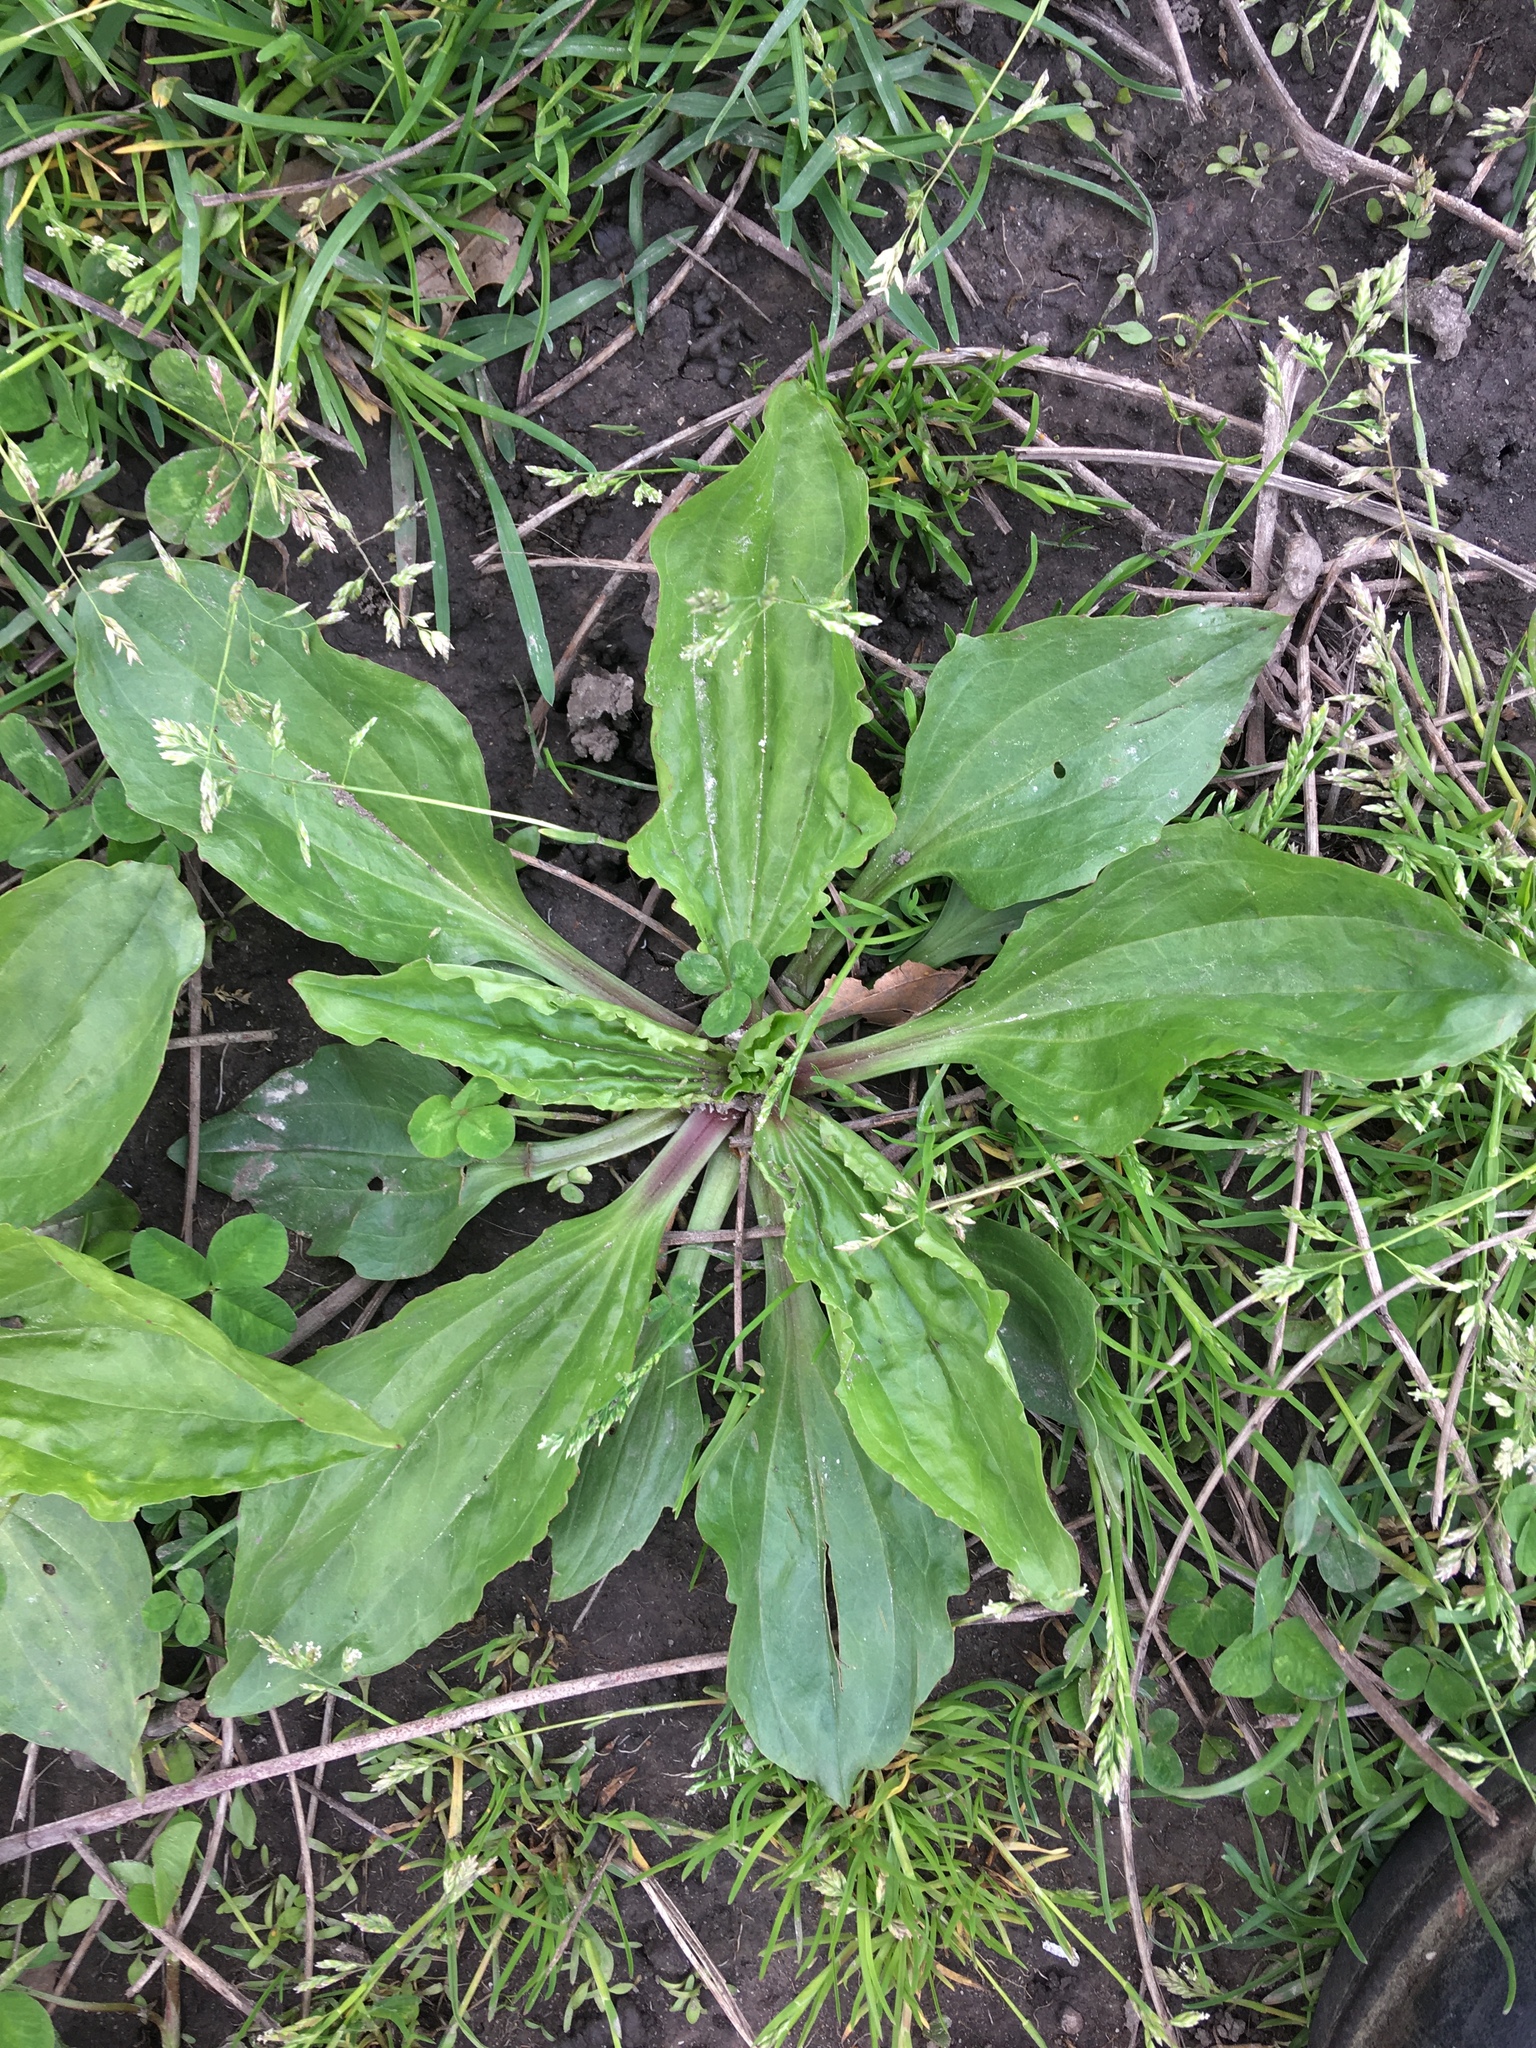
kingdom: Plantae
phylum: Tracheophyta
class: Magnoliopsida
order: Lamiales
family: Plantaginaceae
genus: Plantago
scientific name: Plantago rugelii
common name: American plantain
